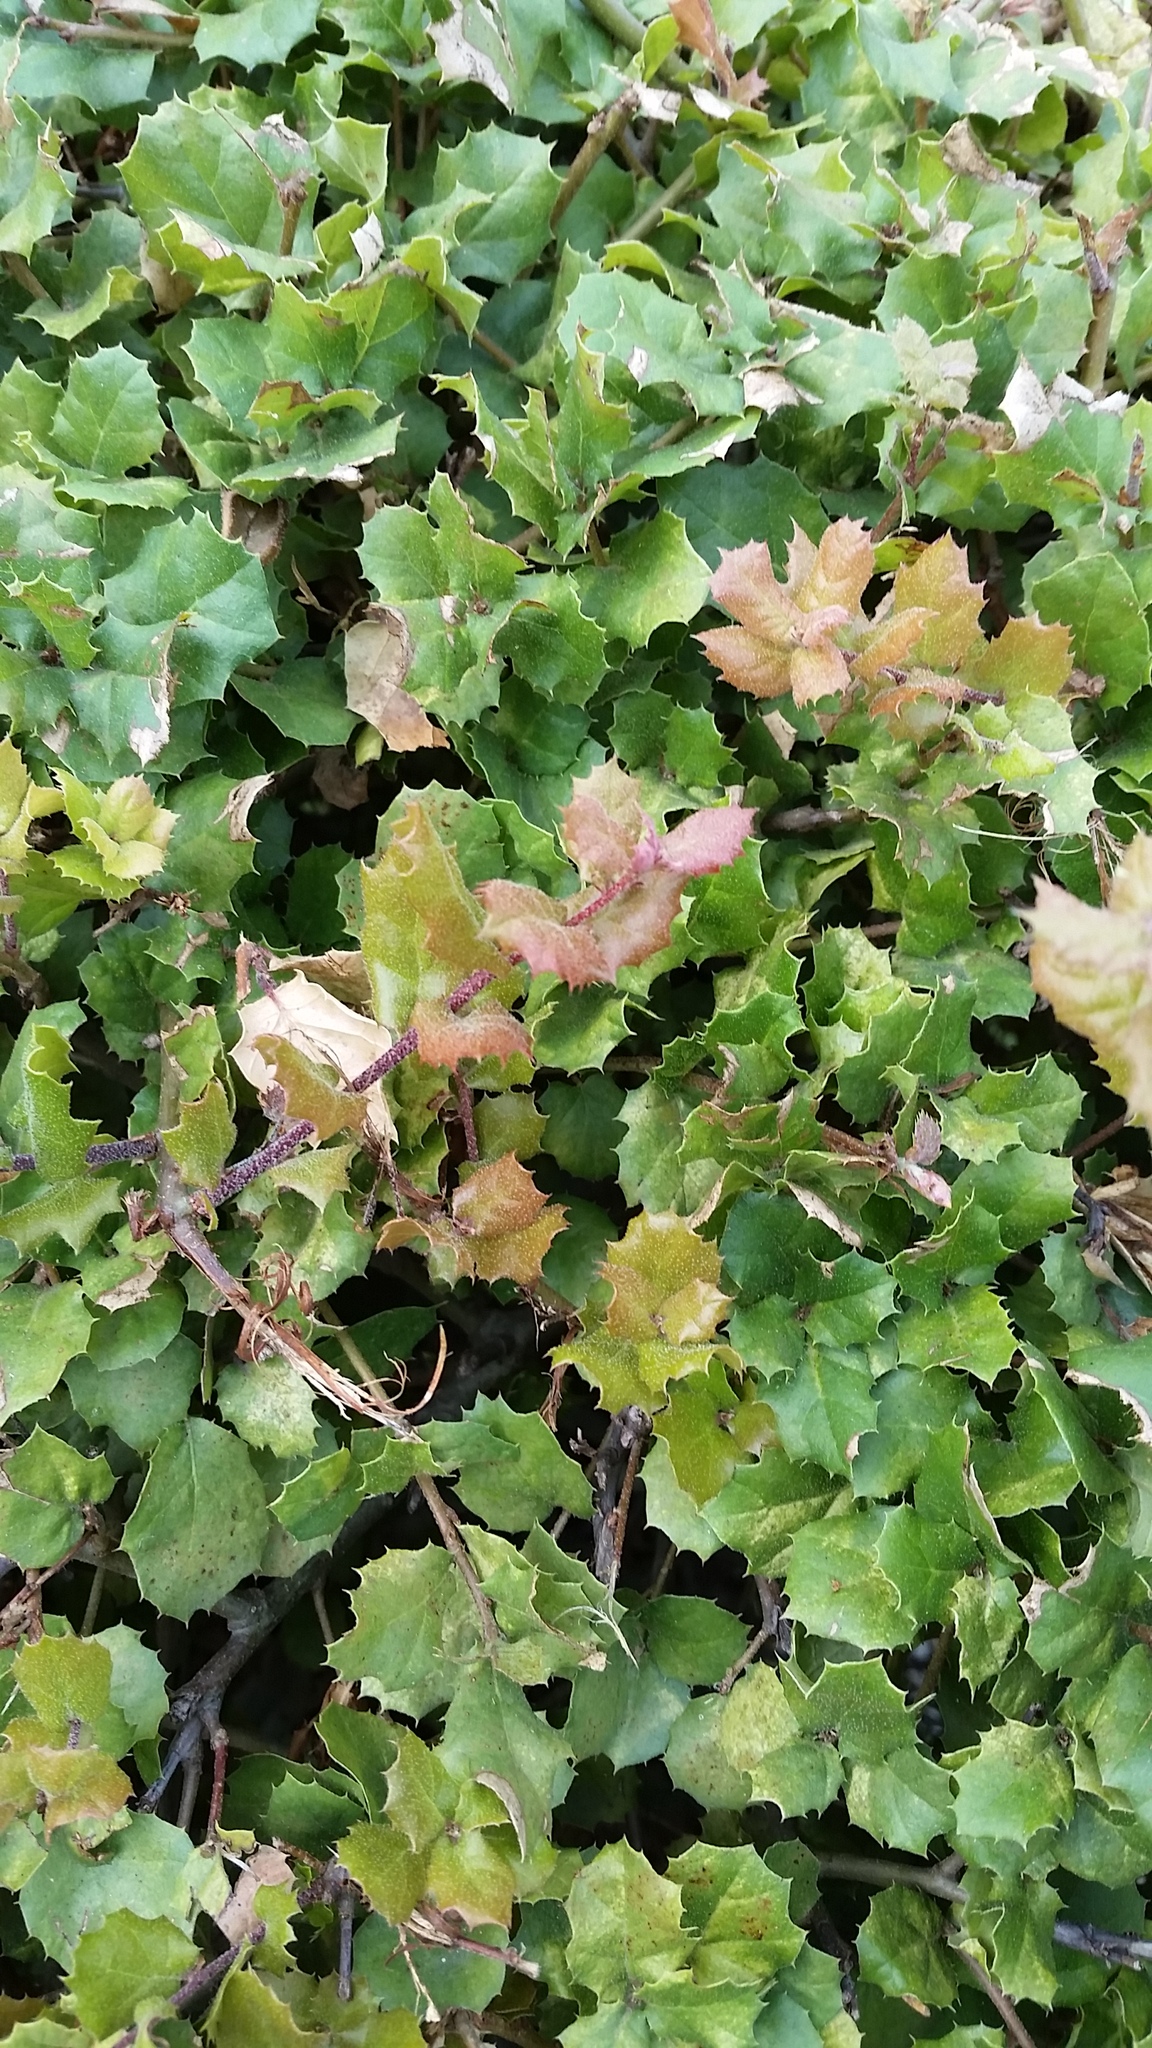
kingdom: Plantae
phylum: Tracheophyta
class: Magnoliopsida
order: Fagales
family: Fagaceae
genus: Quercus
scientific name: Quercus agrifolia
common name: California live oak
